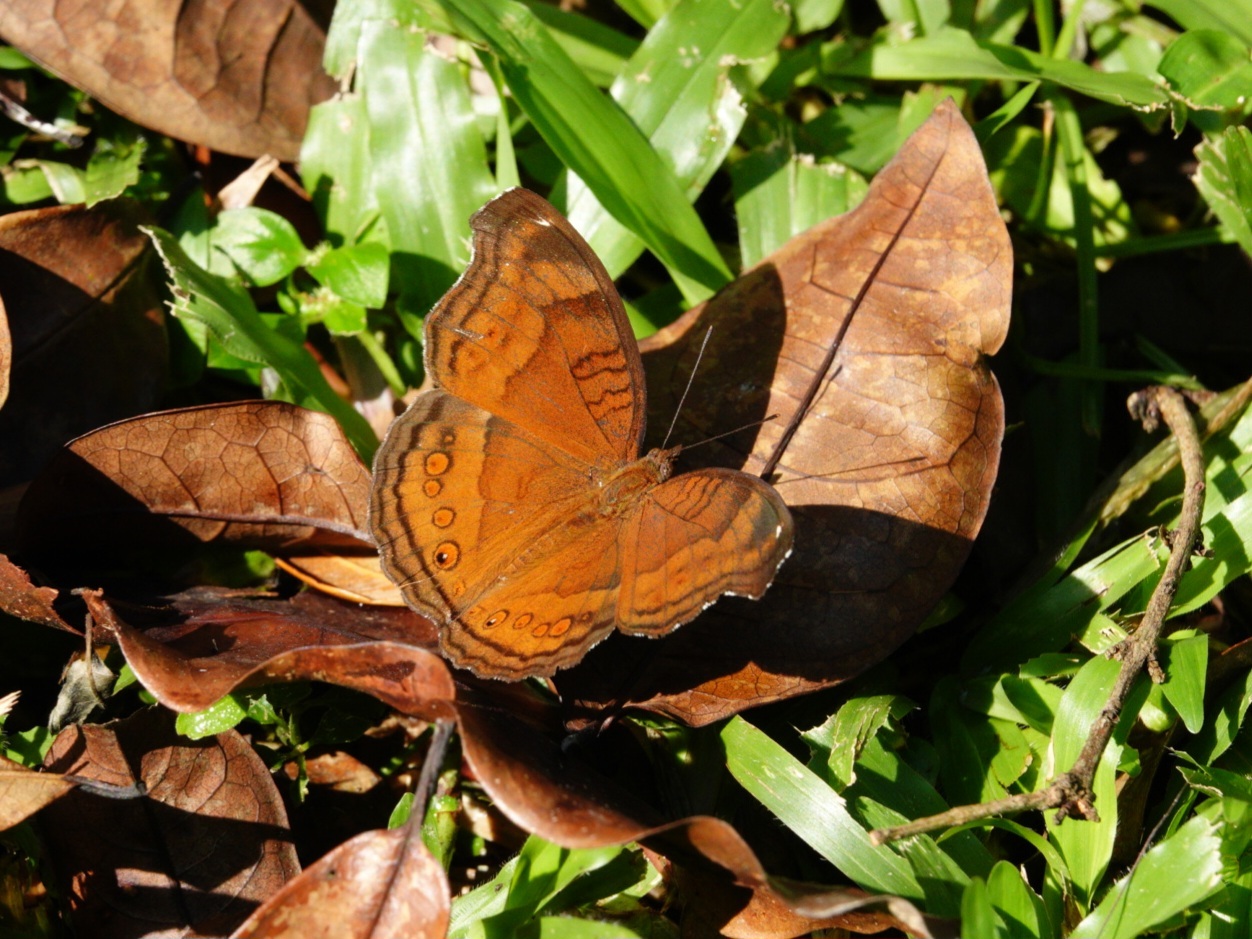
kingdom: Animalia
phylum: Arthropoda
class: Insecta
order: Lepidoptera
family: Nymphalidae
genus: Junonia
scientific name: Junonia hedonia
